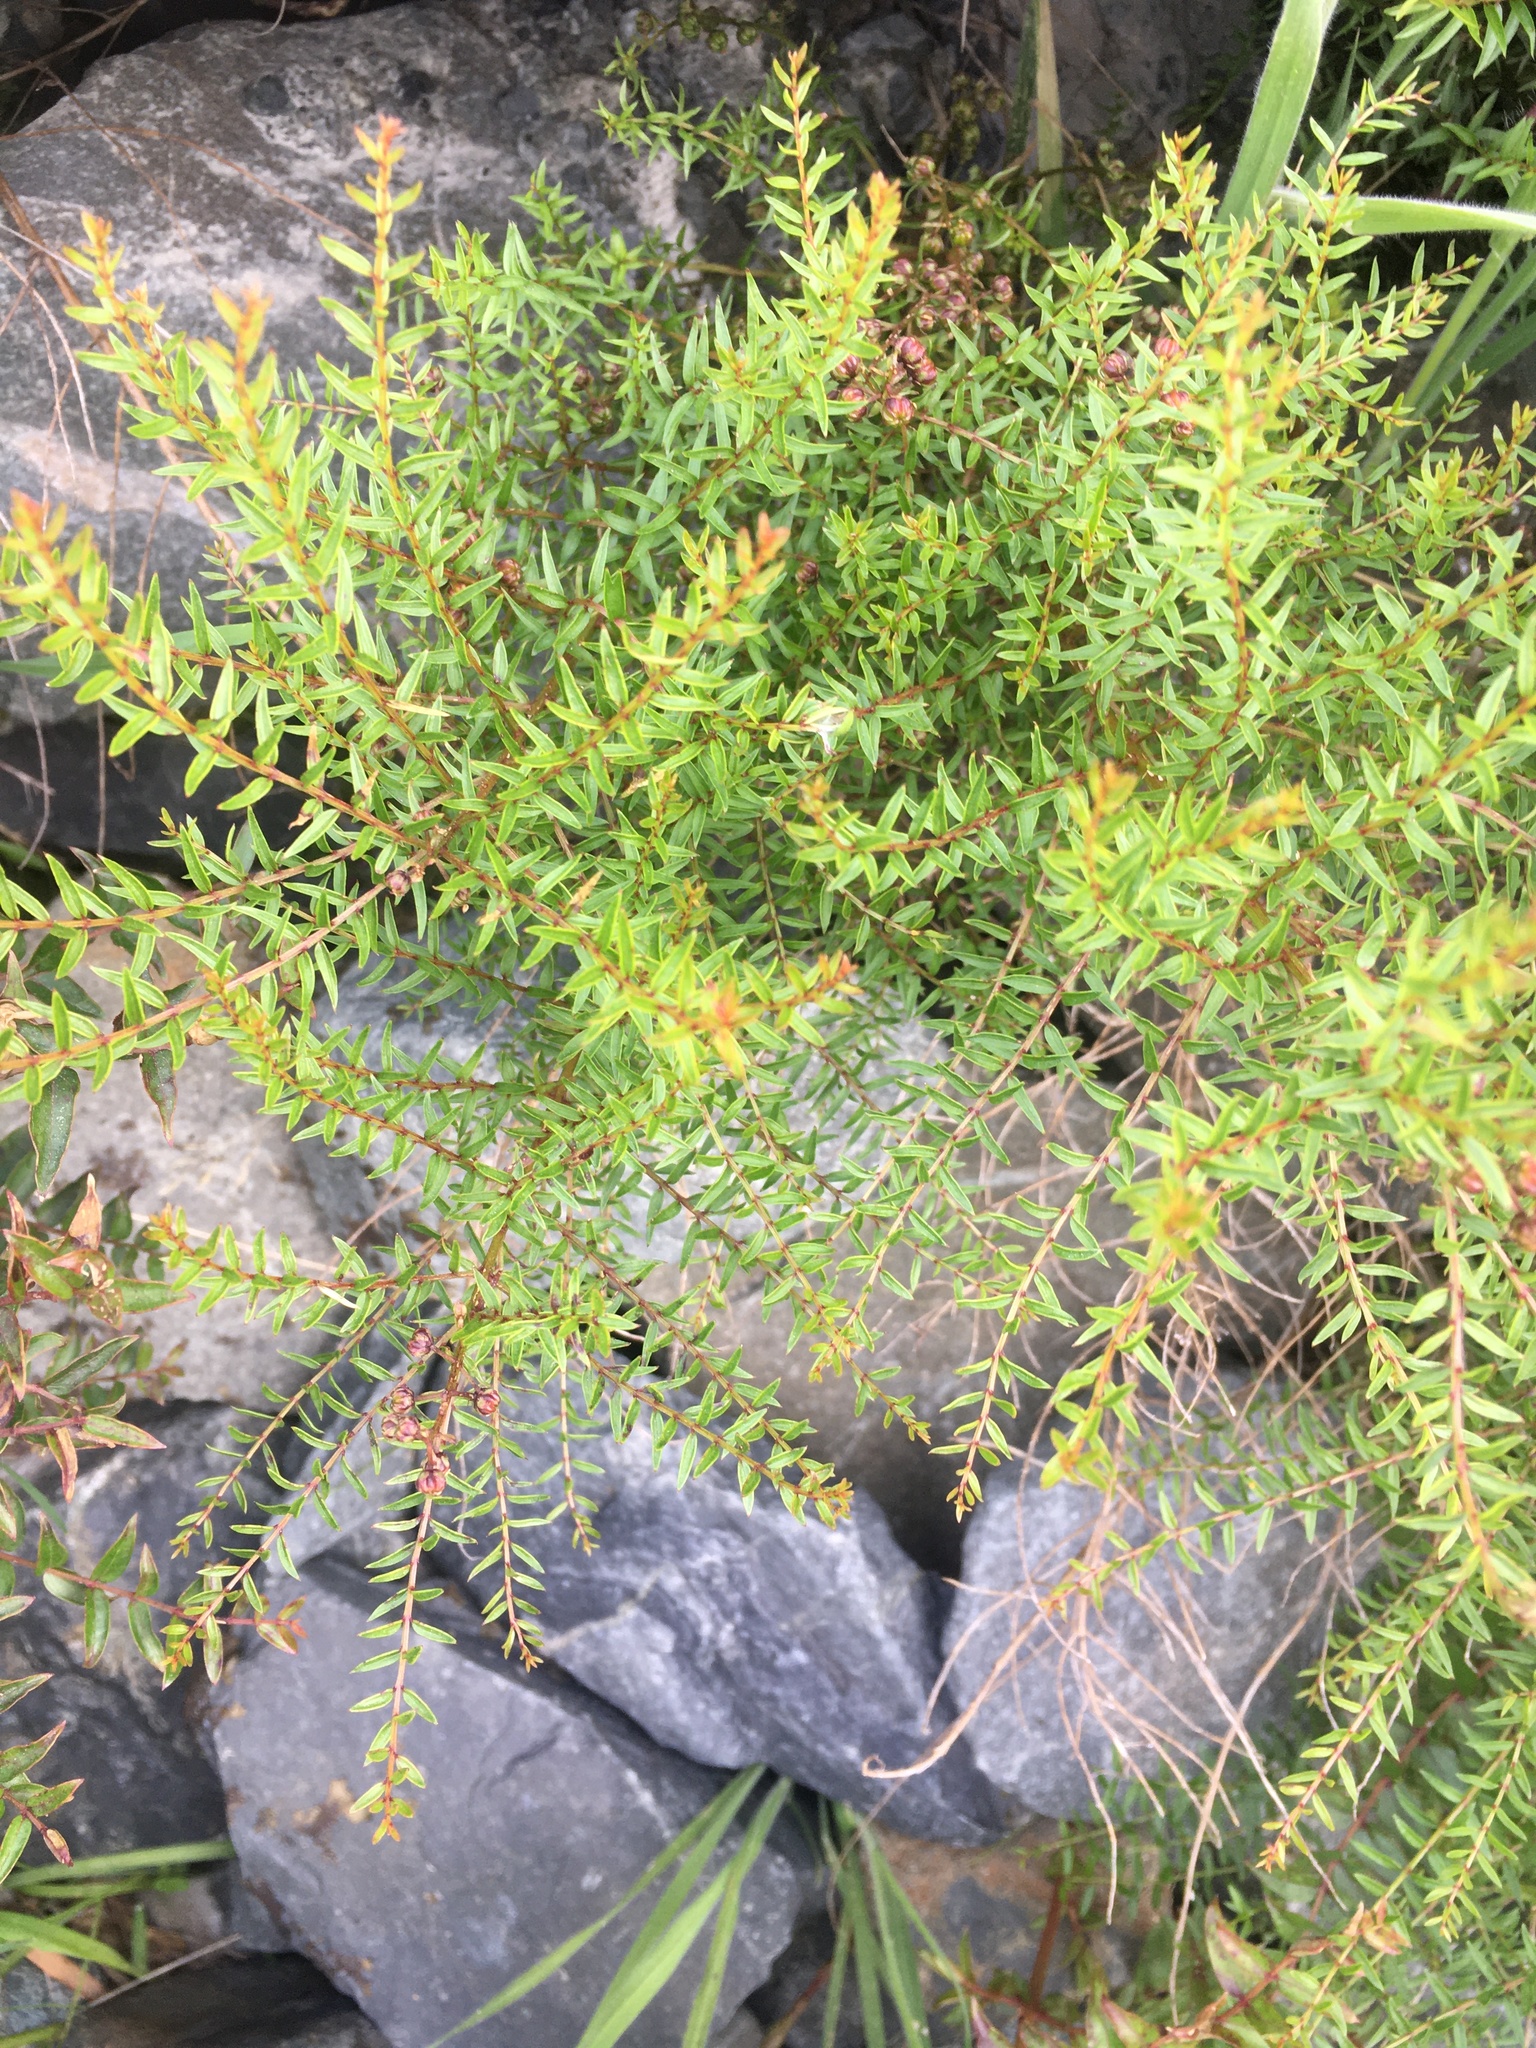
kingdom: Plantae
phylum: Tracheophyta
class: Magnoliopsida
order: Cucurbitales
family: Coriariaceae
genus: Coriaria
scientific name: Coriaria angustissima
